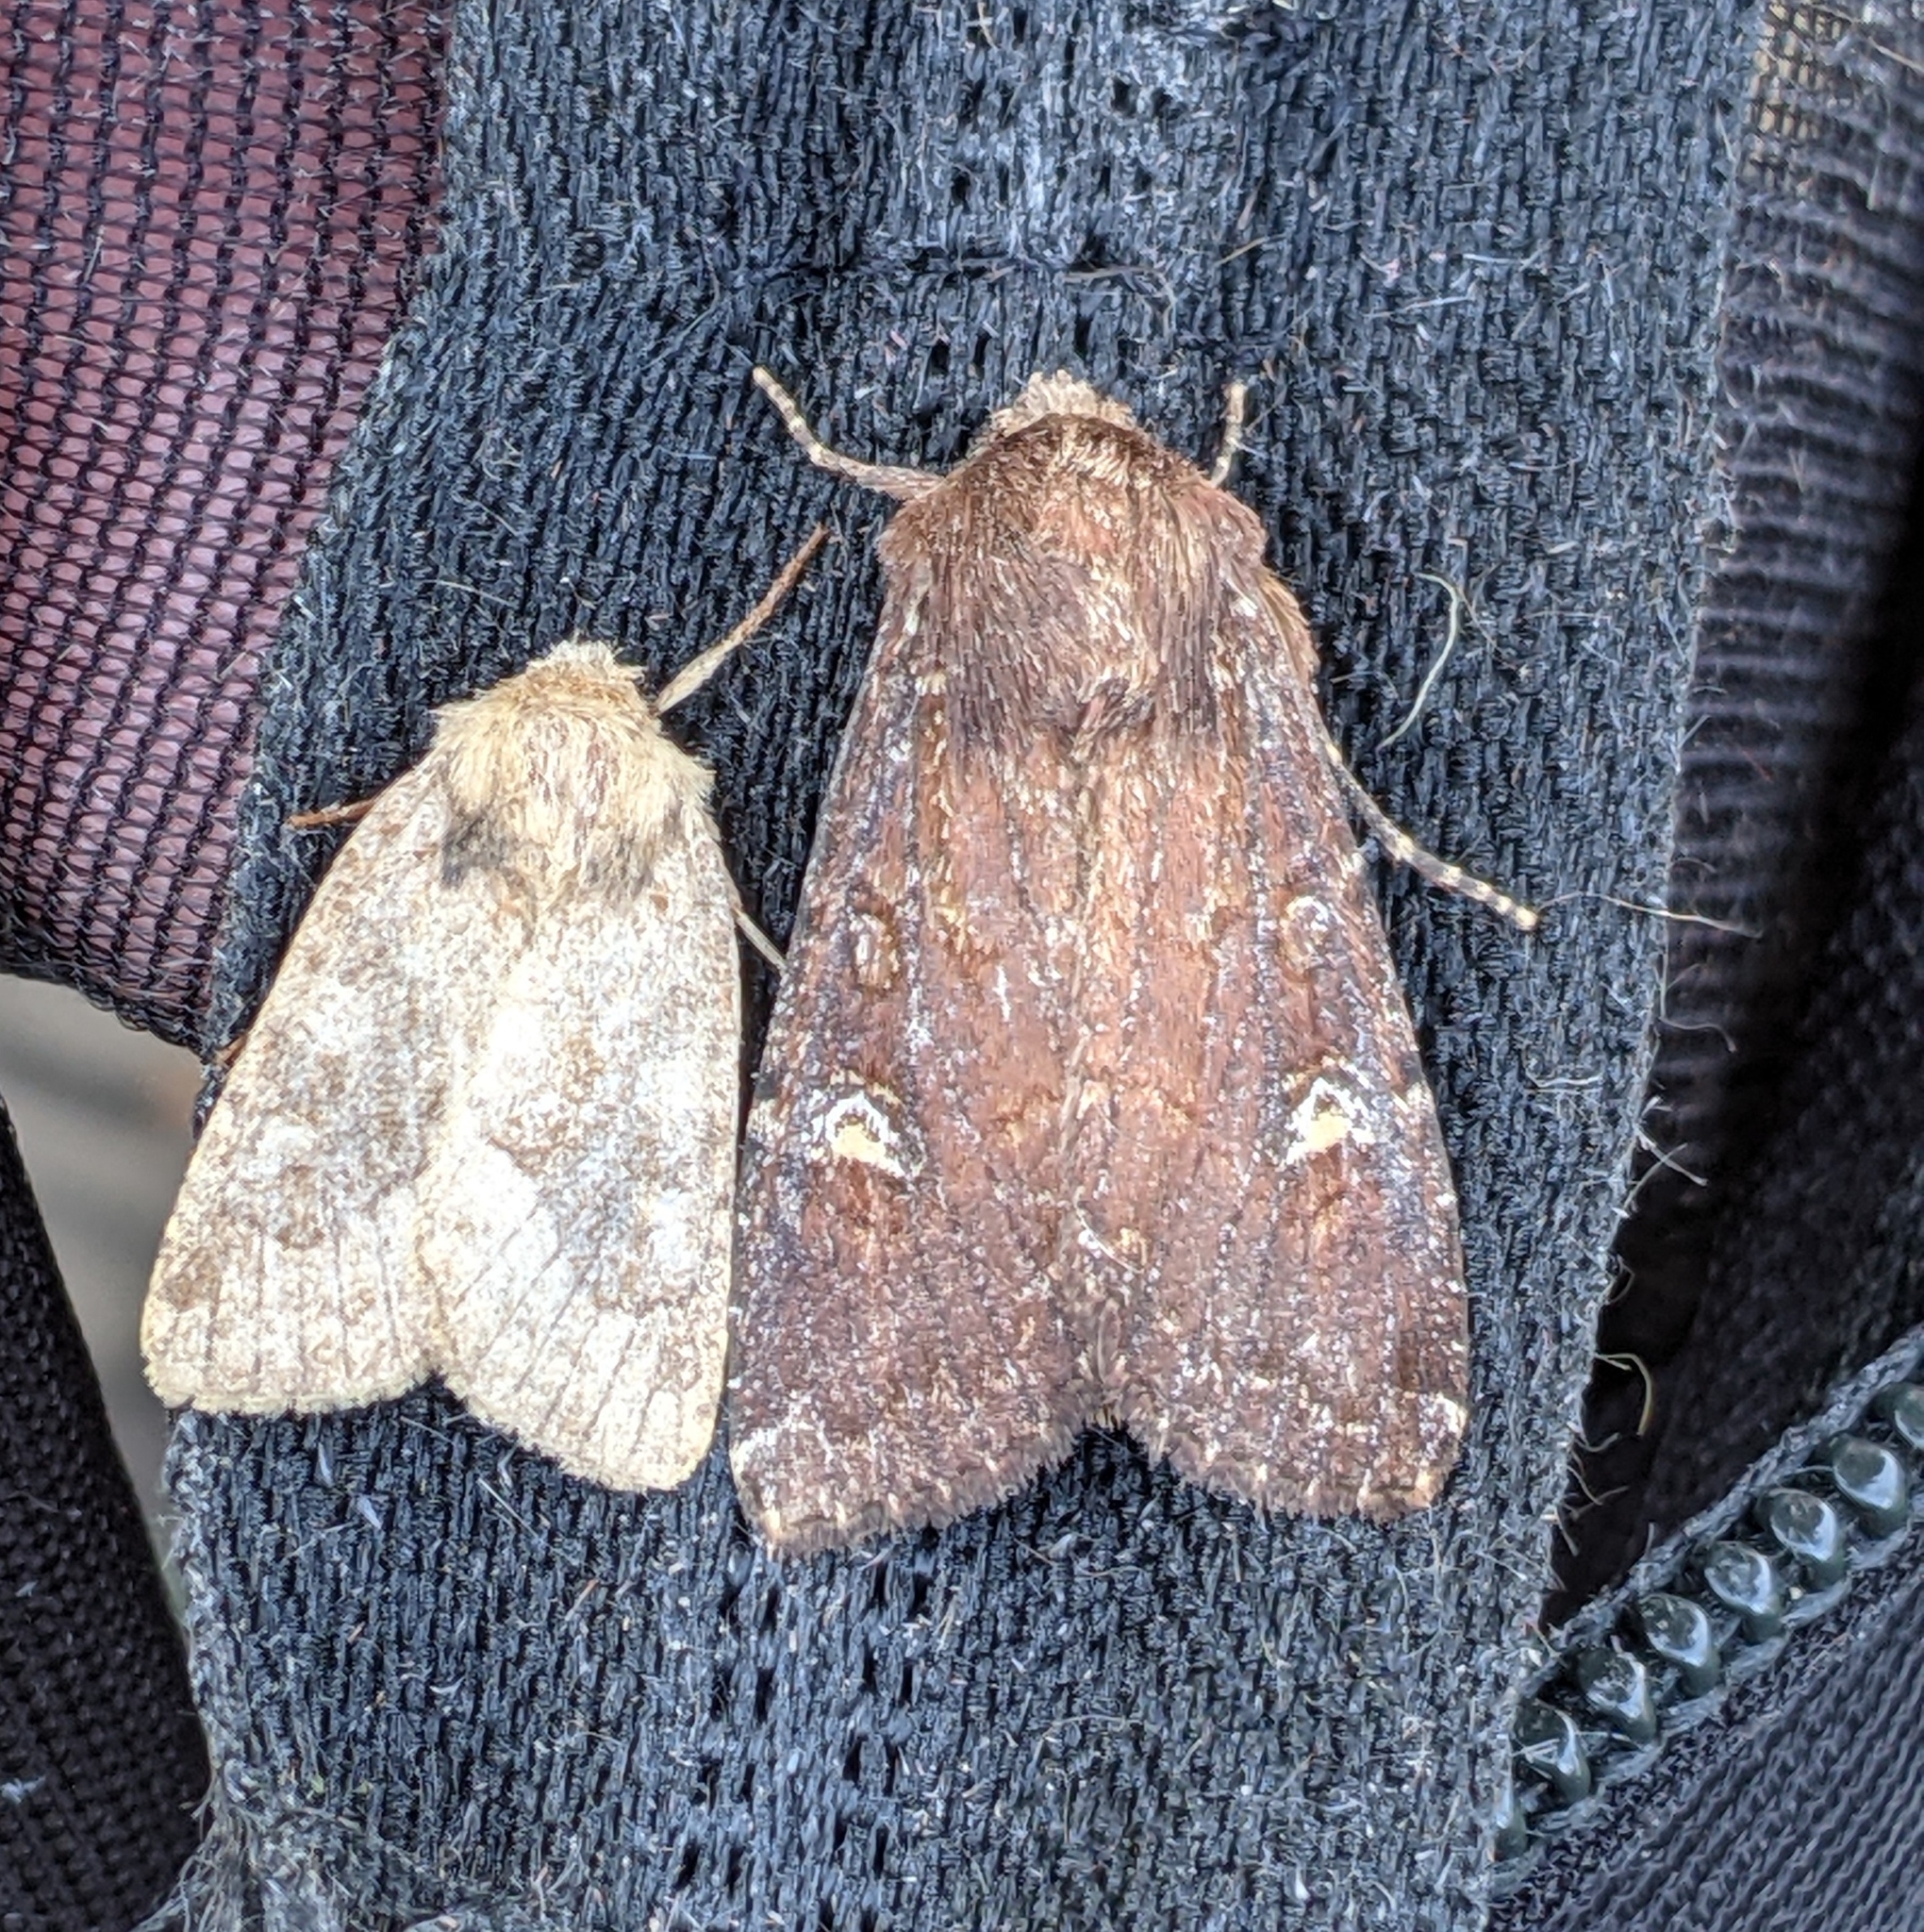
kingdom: Animalia
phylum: Arthropoda
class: Insecta
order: Lepidoptera
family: Noctuidae
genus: Apamea
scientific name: Apamea cogitata
